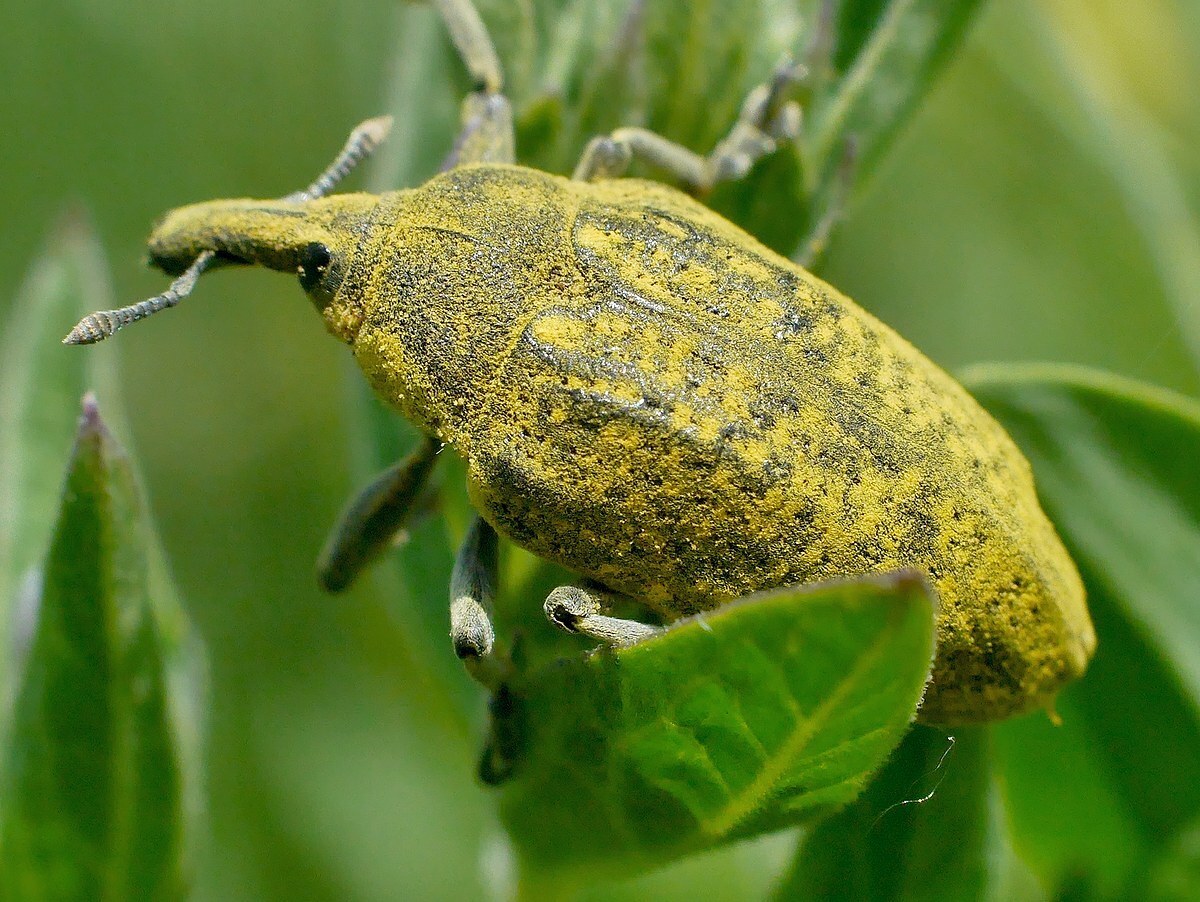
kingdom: Animalia
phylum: Arthropoda
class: Insecta
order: Coleoptera
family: Curculionidae
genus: Larinus
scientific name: Larinus latus
